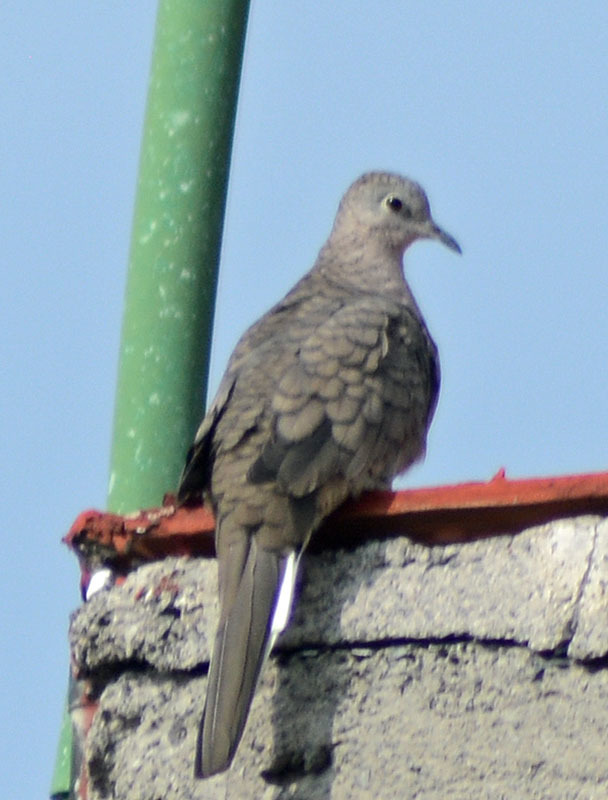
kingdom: Animalia
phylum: Chordata
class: Aves
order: Columbiformes
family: Columbidae
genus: Columbina
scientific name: Columbina inca
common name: Inca dove
